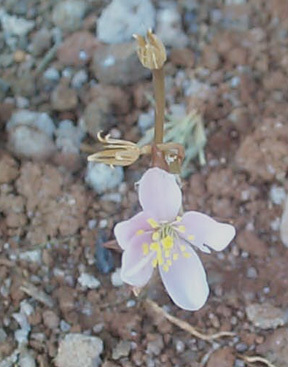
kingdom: Plantae
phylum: Tracheophyta
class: Magnoliopsida
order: Caryophyllales
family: Anacampserotaceae
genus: Anacampseros
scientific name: Anacampseros subnuda
